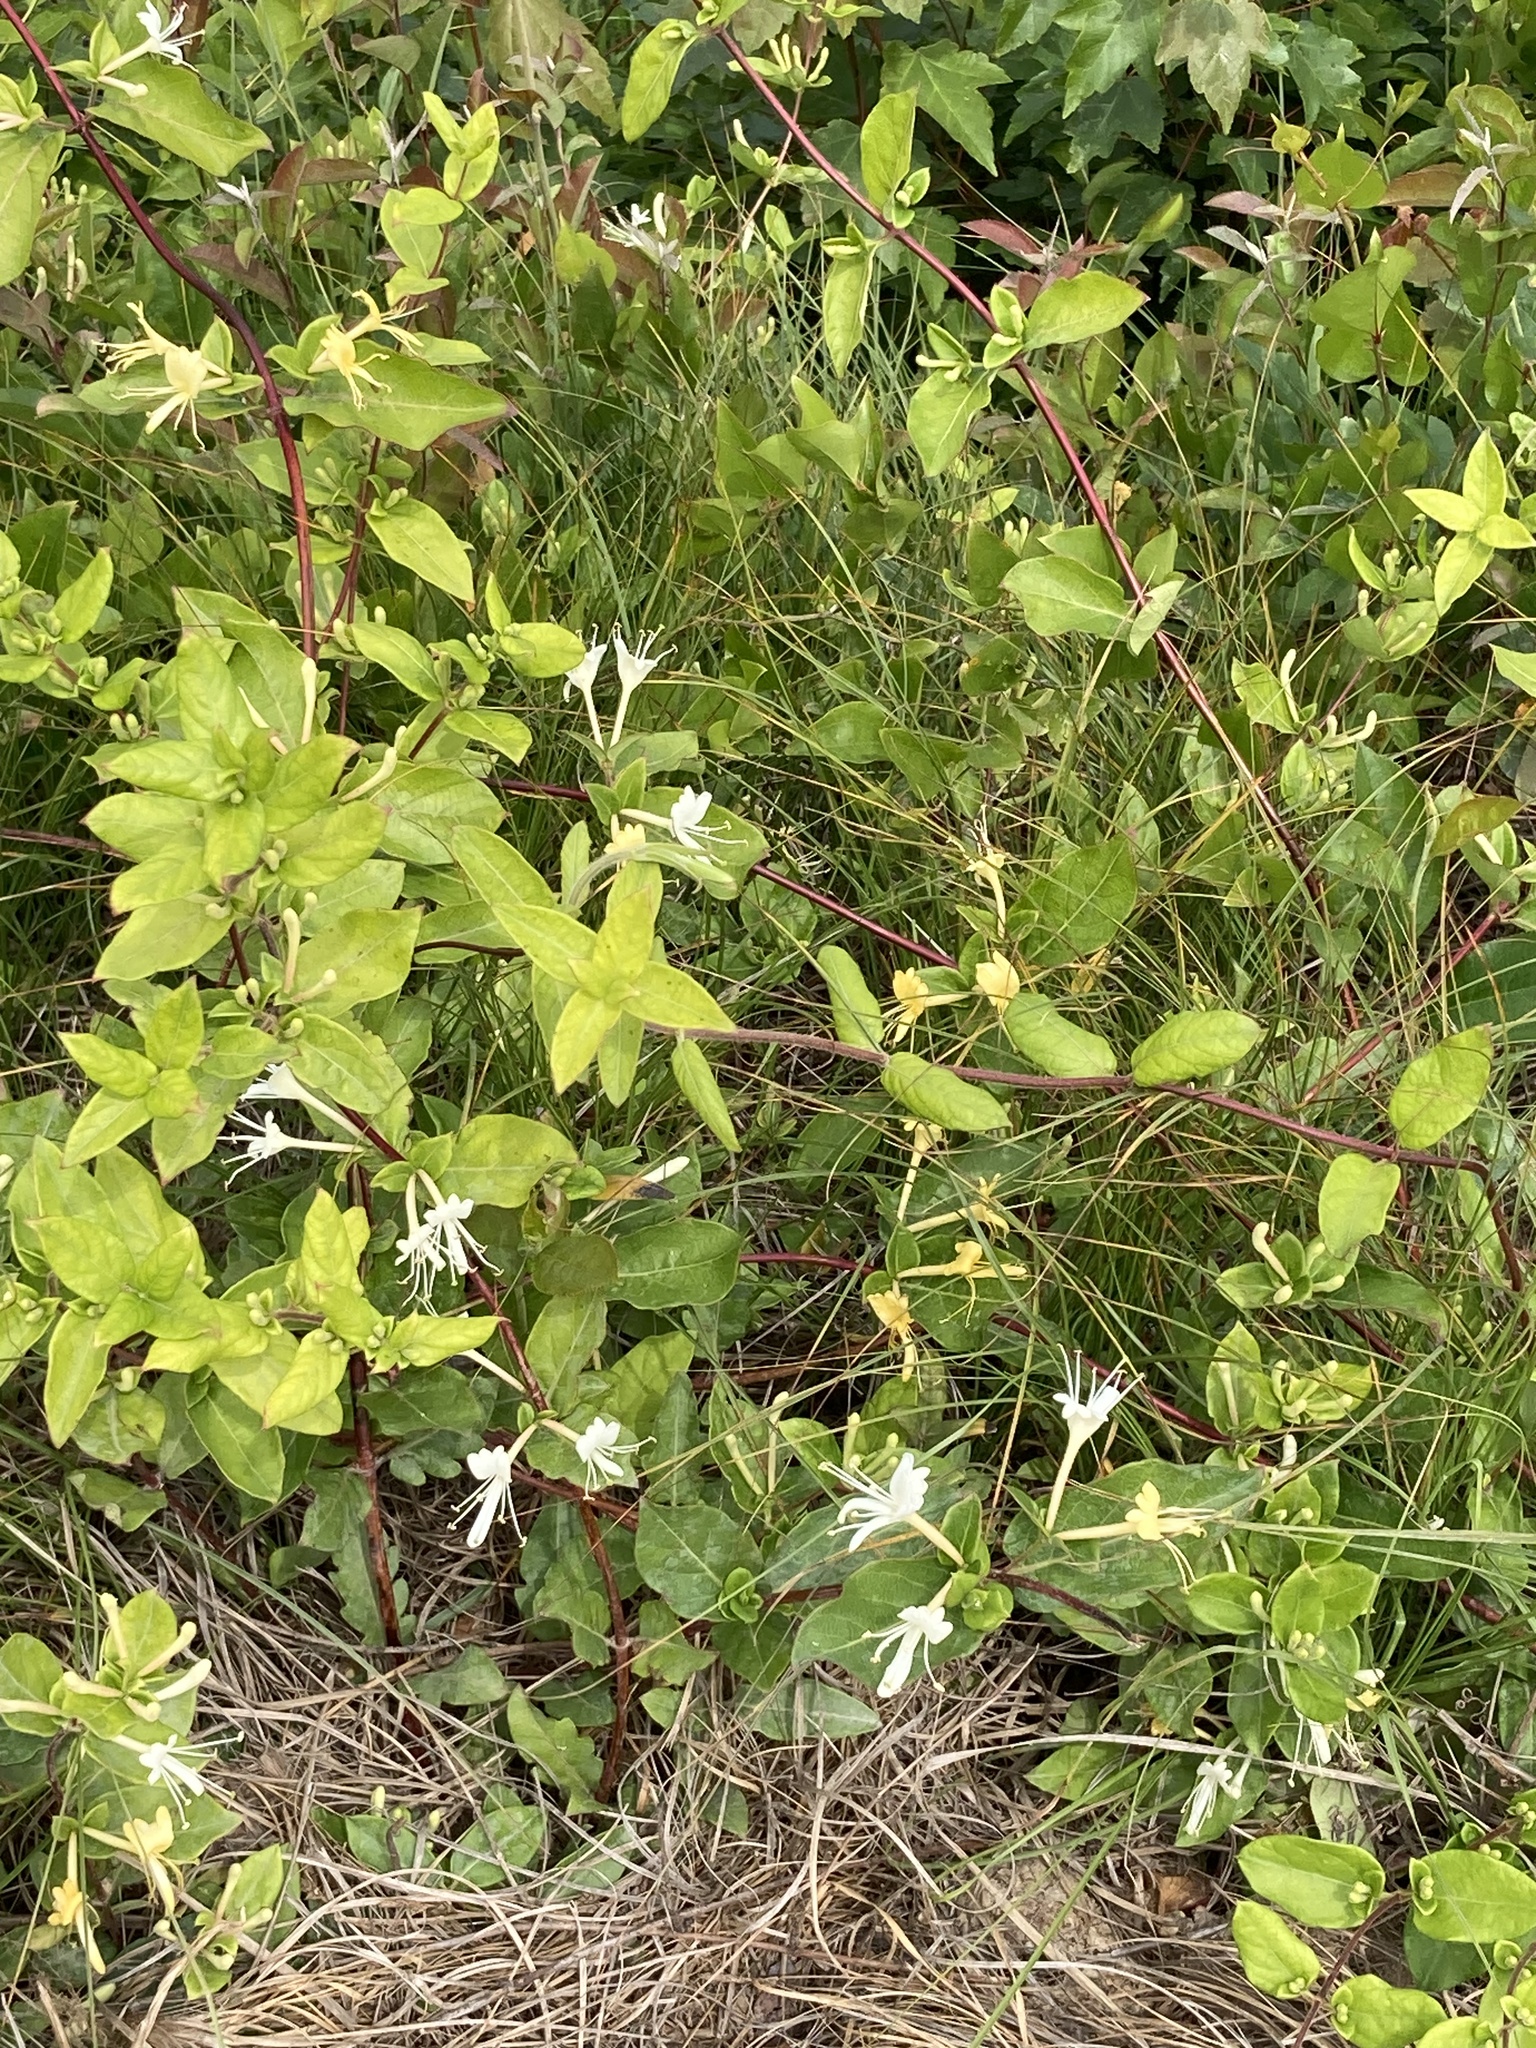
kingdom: Plantae
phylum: Tracheophyta
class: Magnoliopsida
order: Dipsacales
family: Caprifoliaceae
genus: Lonicera
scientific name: Lonicera japonica
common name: Japanese honeysuckle
